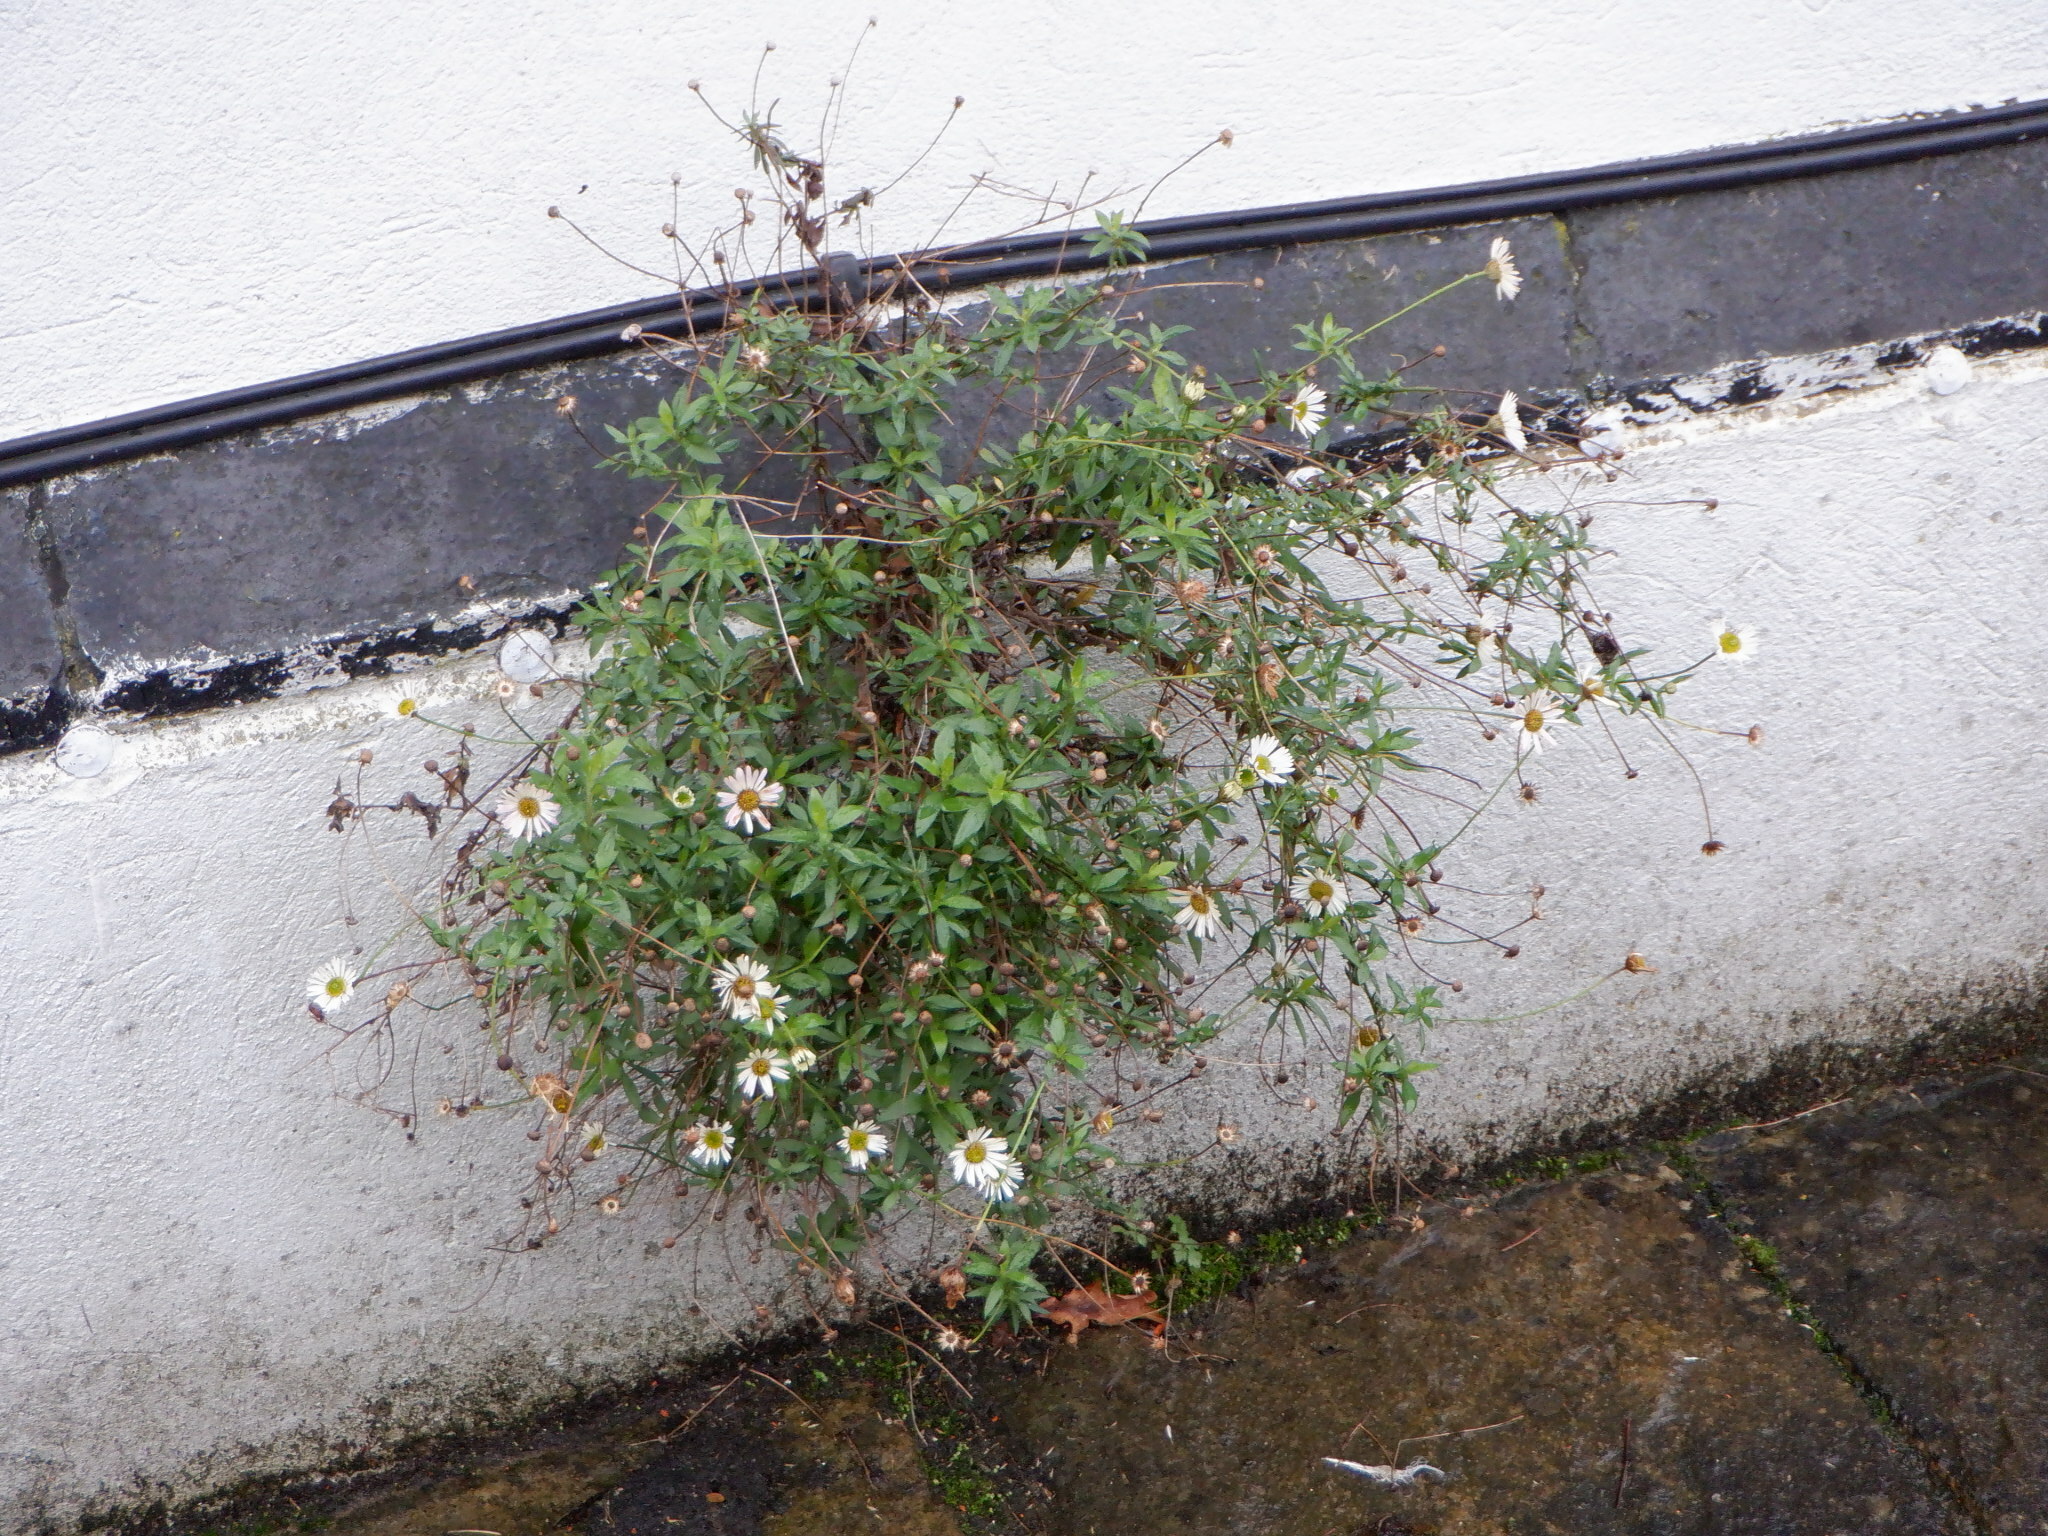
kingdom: Plantae
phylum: Tracheophyta
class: Magnoliopsida
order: Asterales
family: Asteraceae
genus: Erigeron
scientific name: Erigeron karvinskianus
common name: Mexican fleabane
